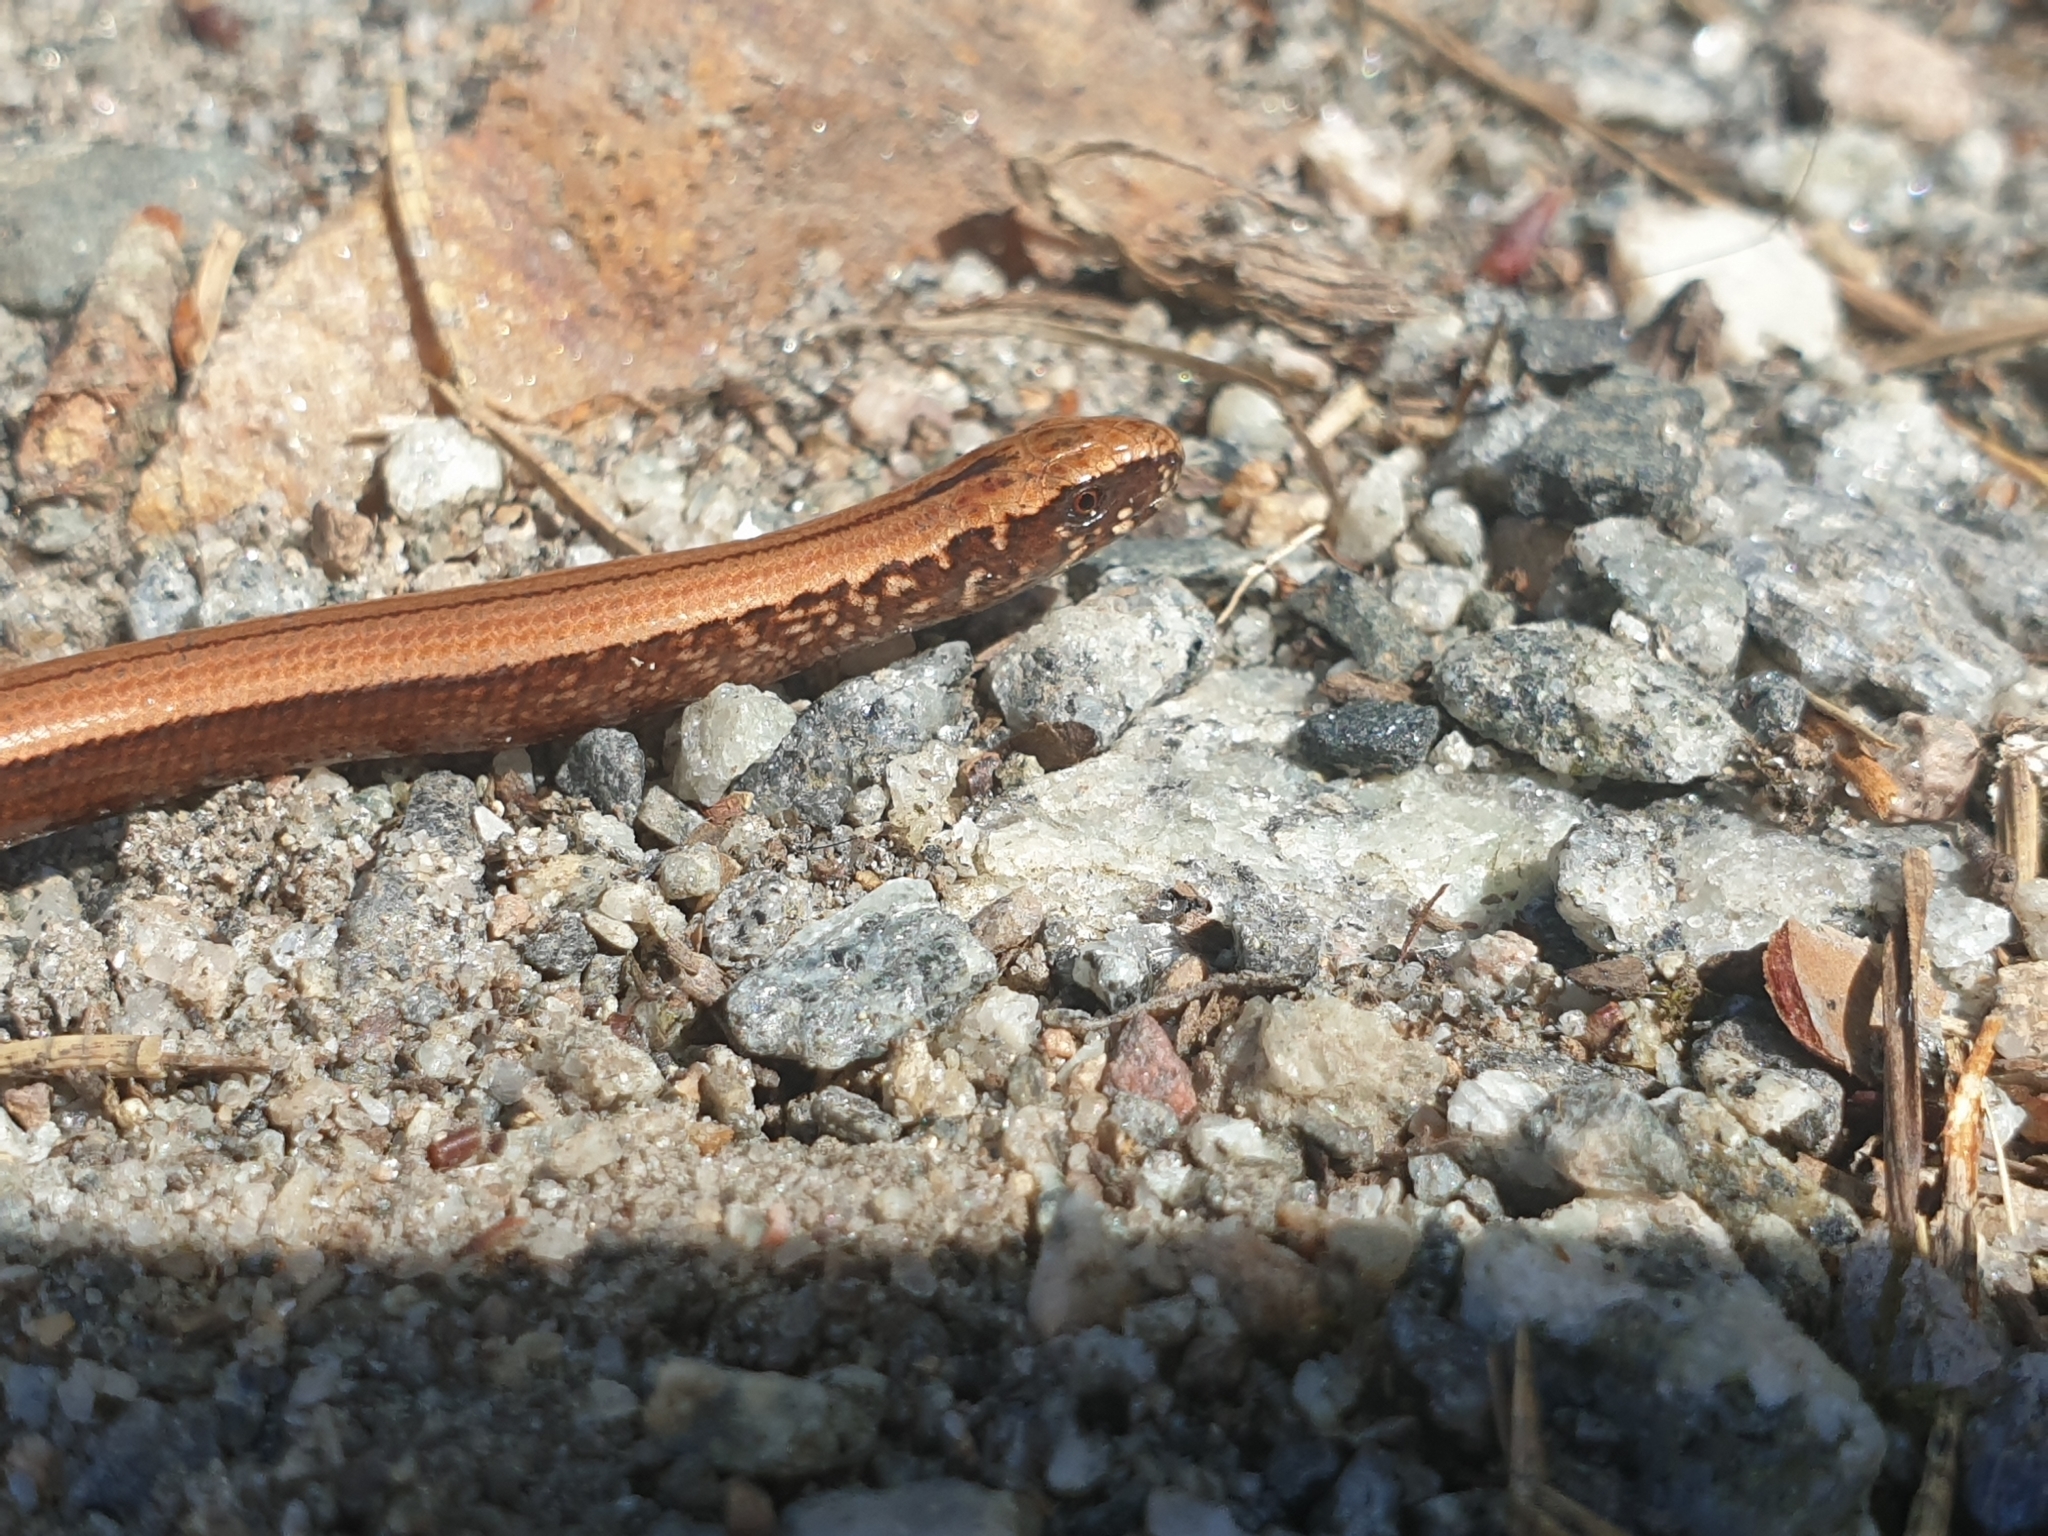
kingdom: Animalia
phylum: Chordata
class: Squamata
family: Anguidae
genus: Anguis
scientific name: Anguis fragilis
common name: Slow worm
